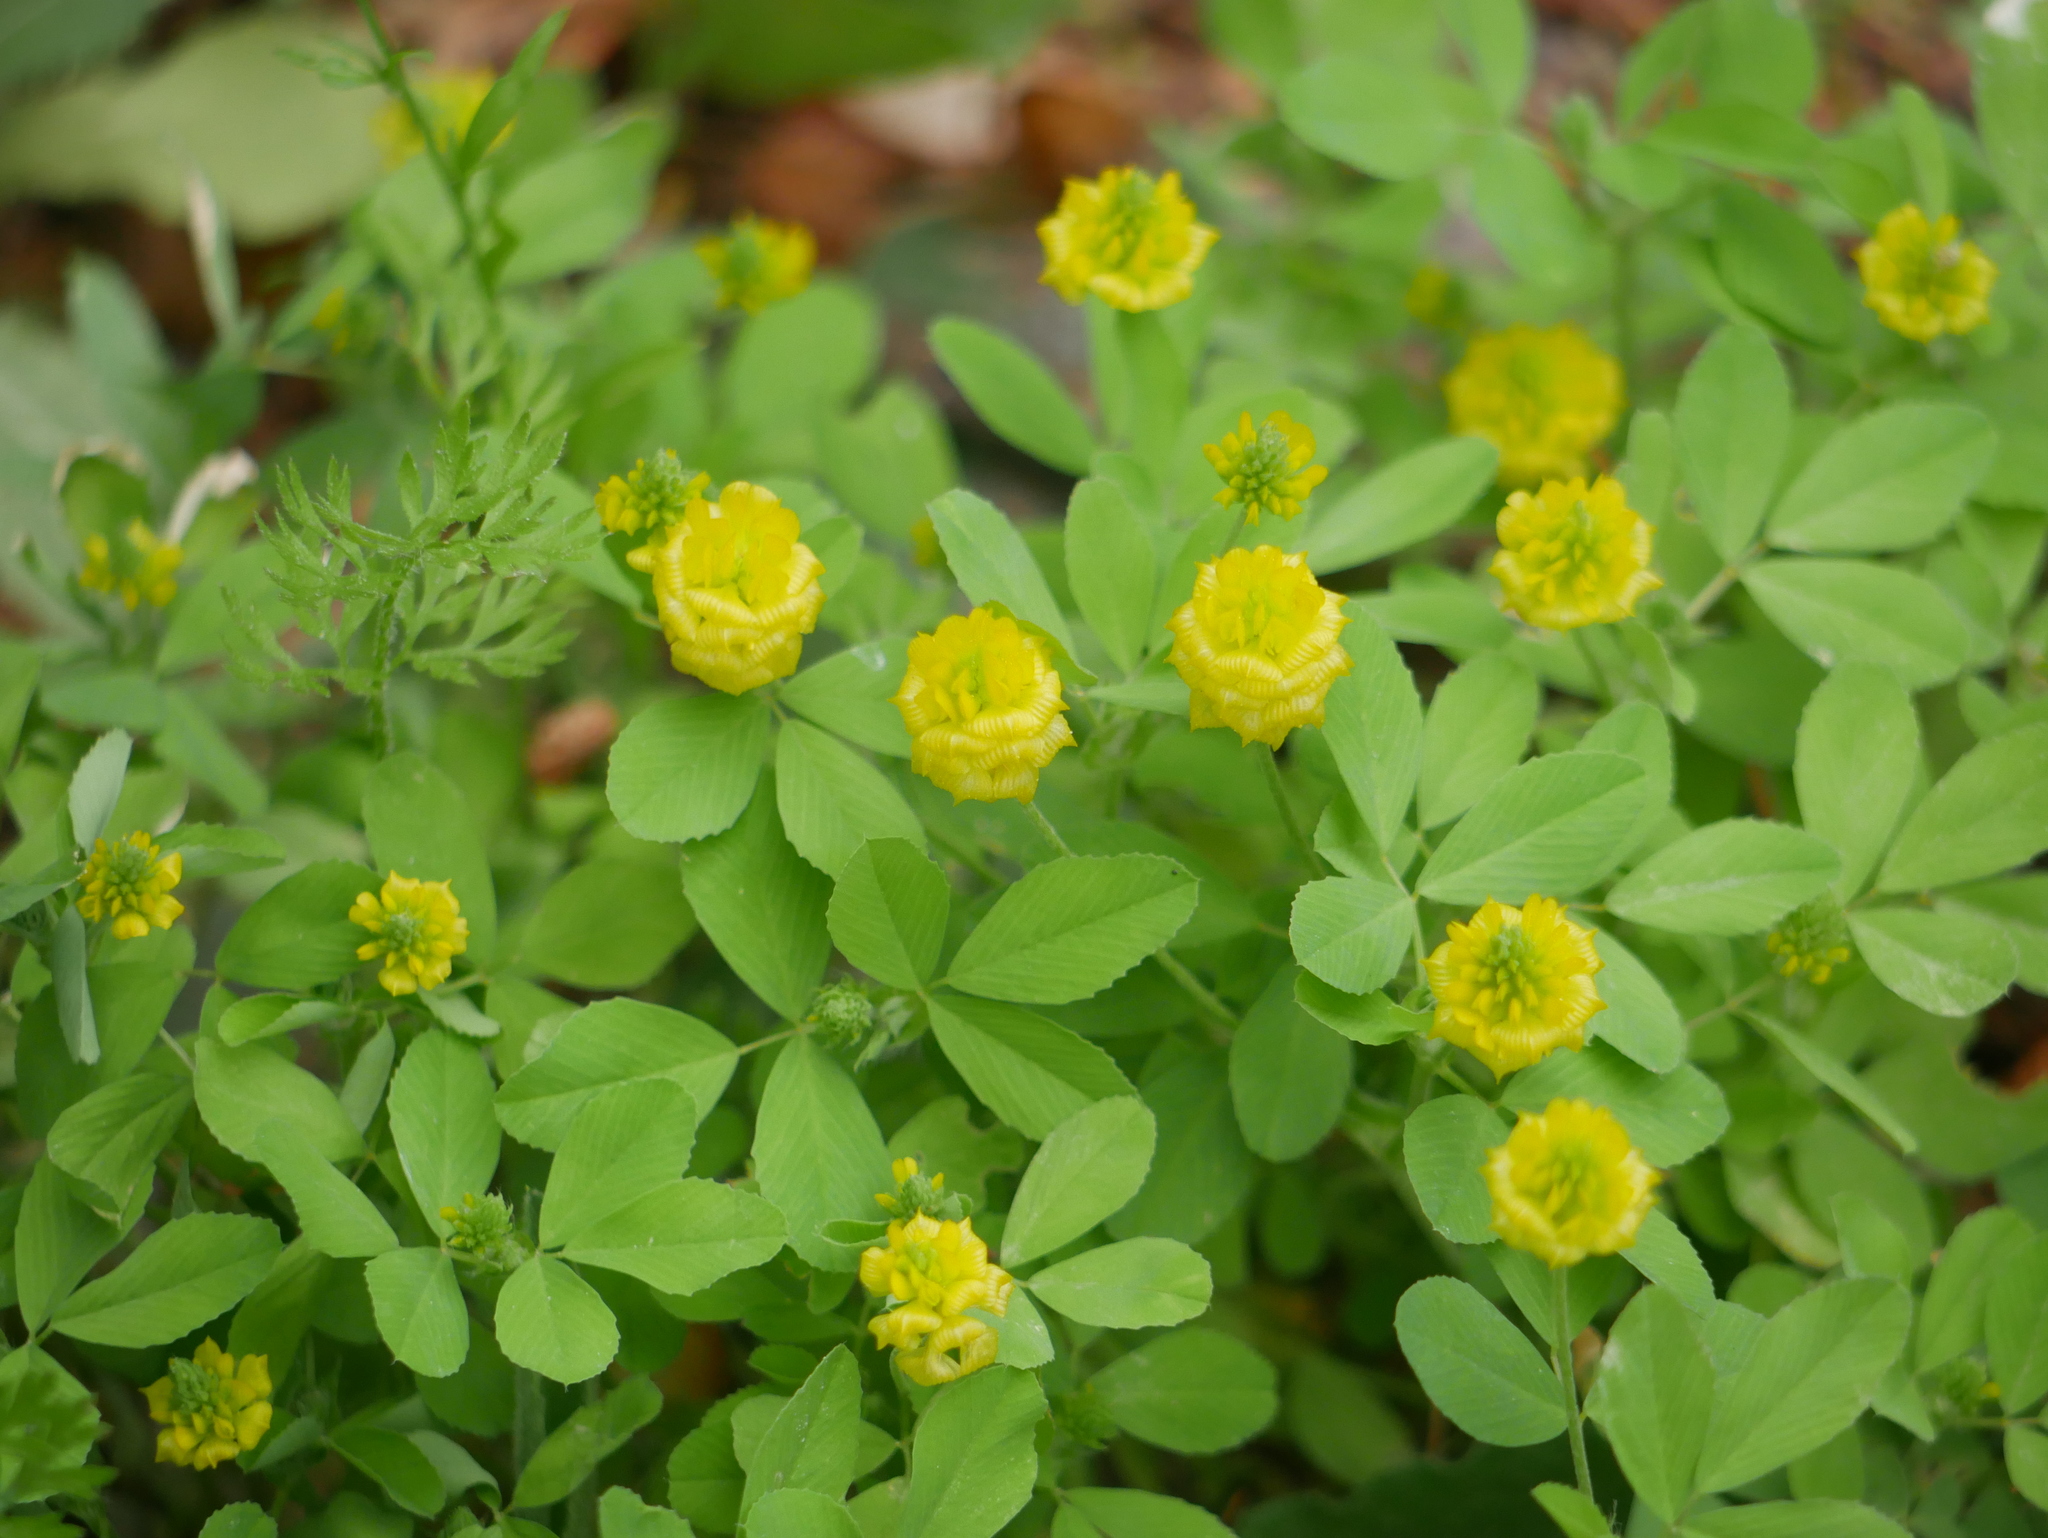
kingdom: Plantae
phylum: Tracheophyta
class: Magnoliopsida
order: Fabales
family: Fabaceae
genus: Trifolium
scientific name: Trifolium campestre
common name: Field clover
